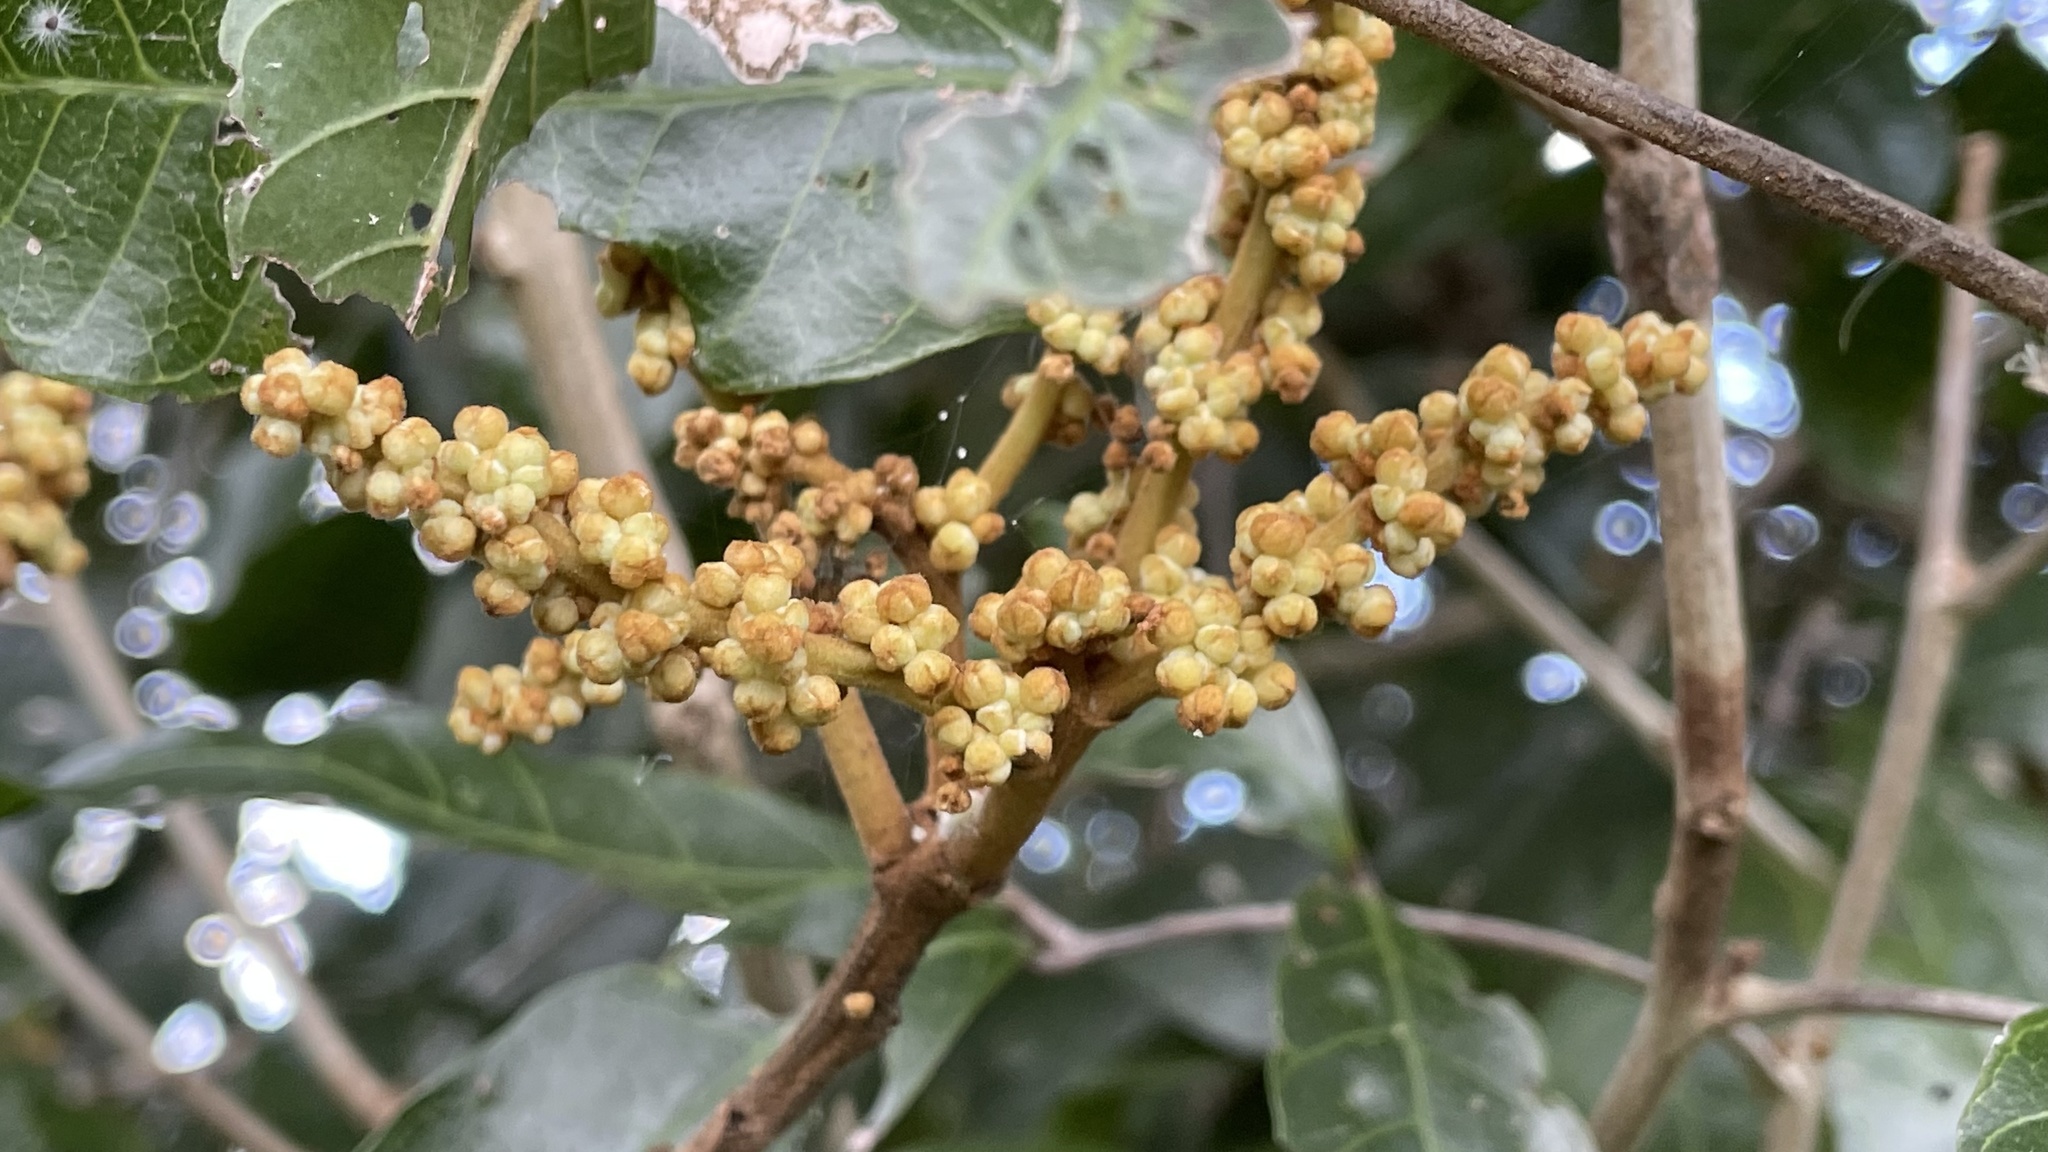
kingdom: Plantae
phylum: Tracheophyta
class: Magnoliopsida
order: Sapindales
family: Sapindaceae
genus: Arytera
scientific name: Arytera foveolata
